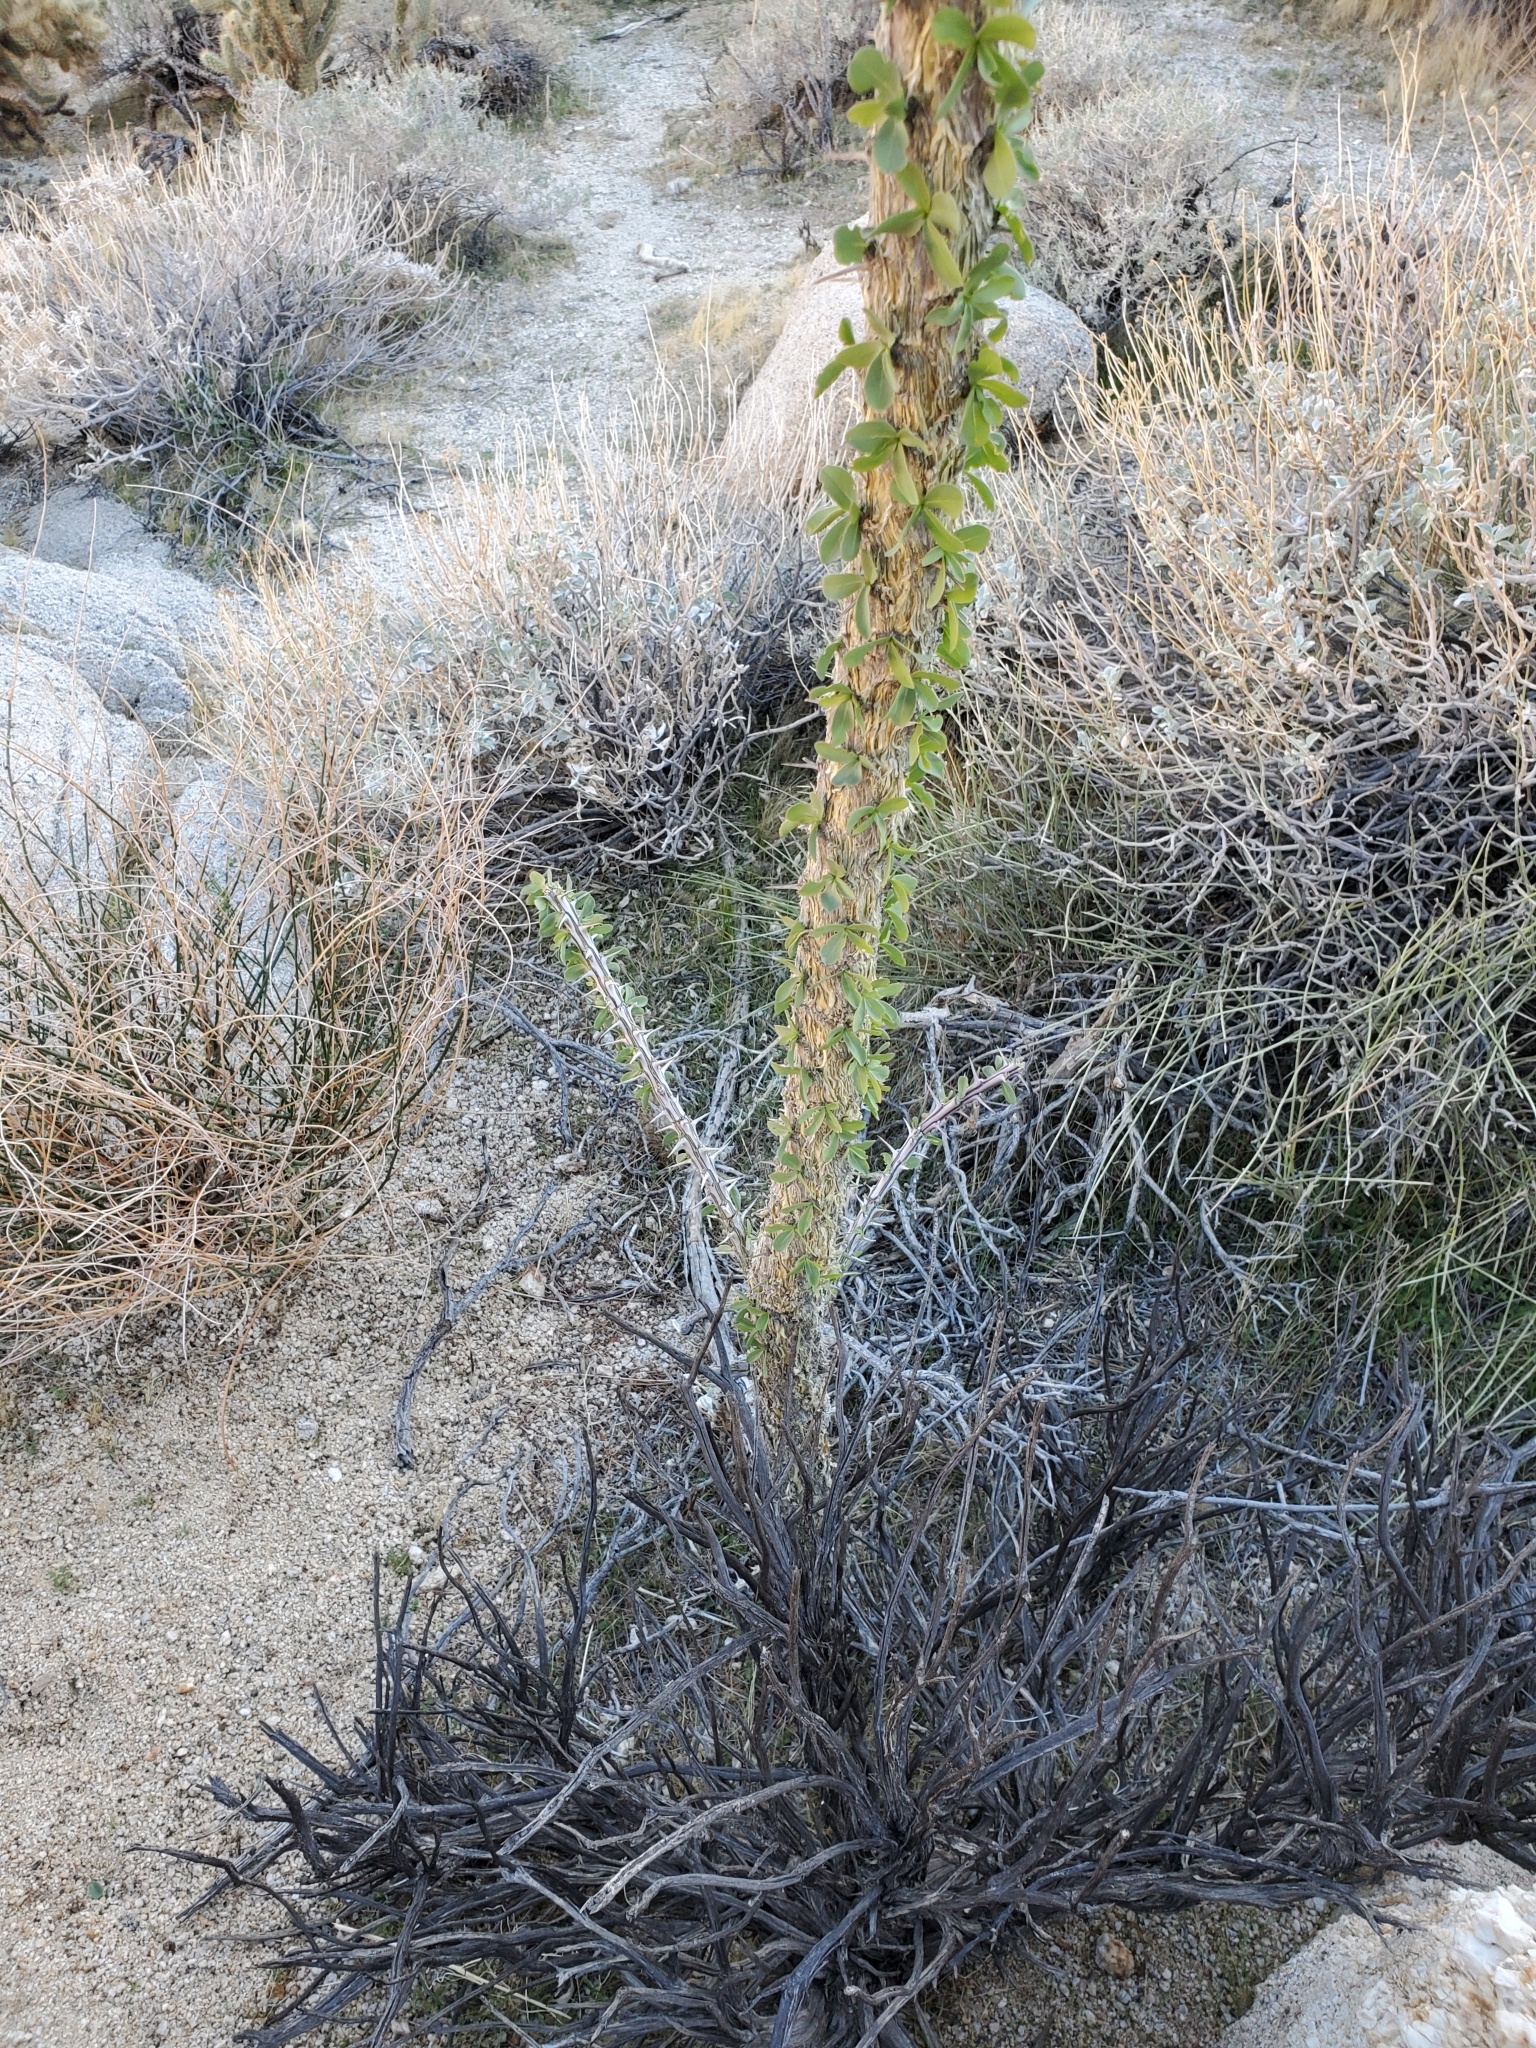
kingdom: Plantae
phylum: Tracheophyta
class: Magnoliopsida
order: Ericales
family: Fouquieriaceae
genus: Fouquieria
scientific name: Fouquieria splendens
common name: Vine-cactus
